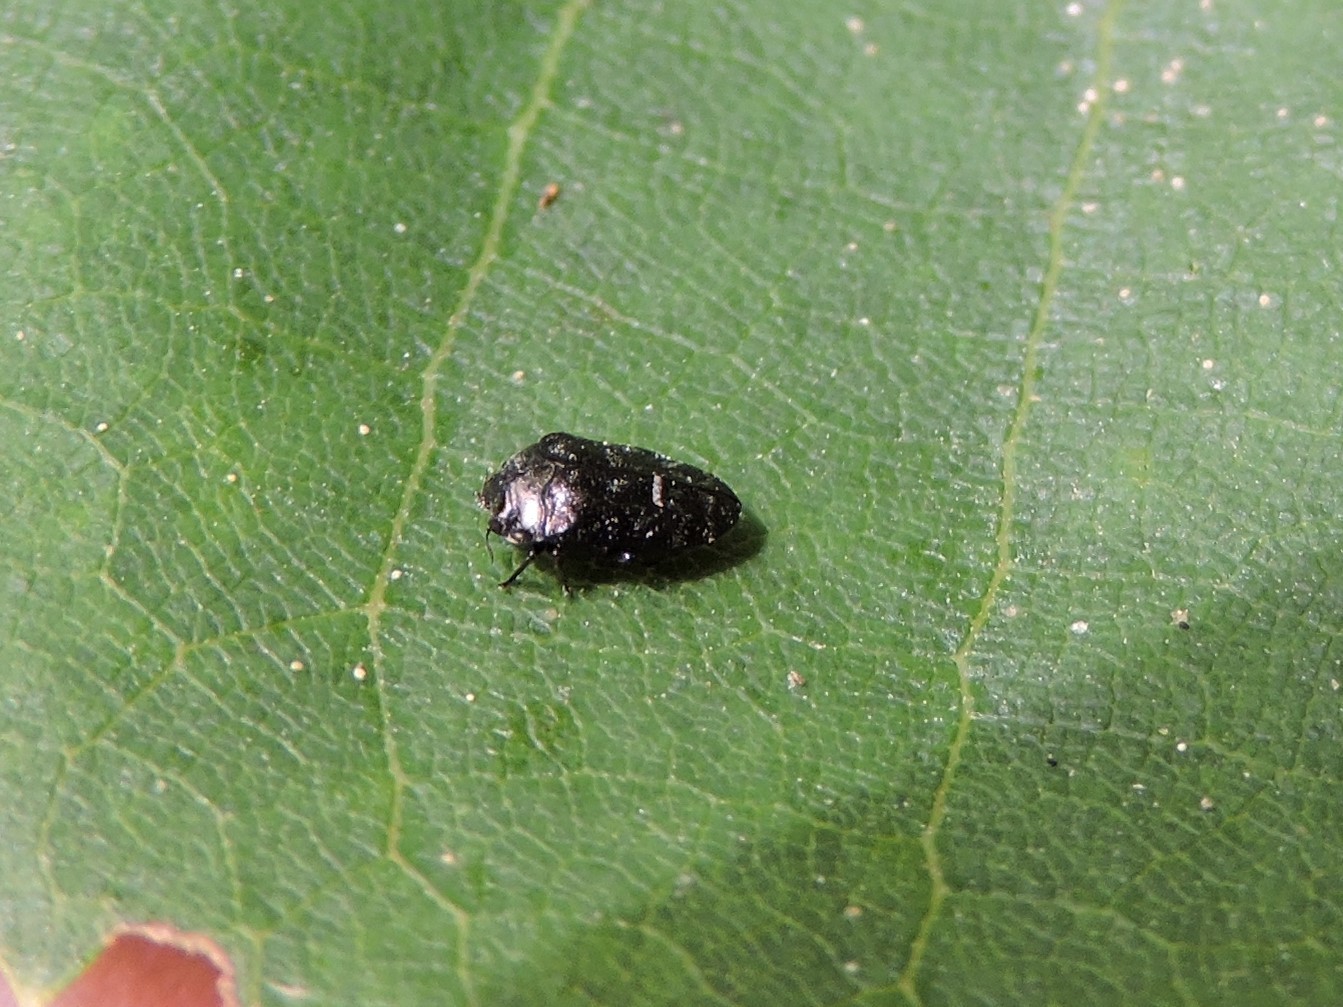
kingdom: Animalia
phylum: Arthropoda
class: Insecta
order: Coleoptera
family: Buprestidae
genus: Trachys
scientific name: Trachys minutus
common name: Metallic wood-boring beetle
